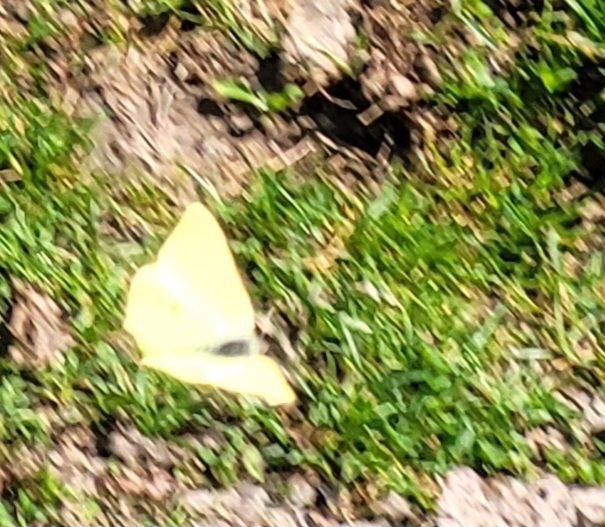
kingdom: Animalia
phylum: Arthropoda
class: Insecta
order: Lepidoptera
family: Pieridae
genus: Gonepteryx
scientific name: Gonepteryx rhamni
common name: Brimstone
